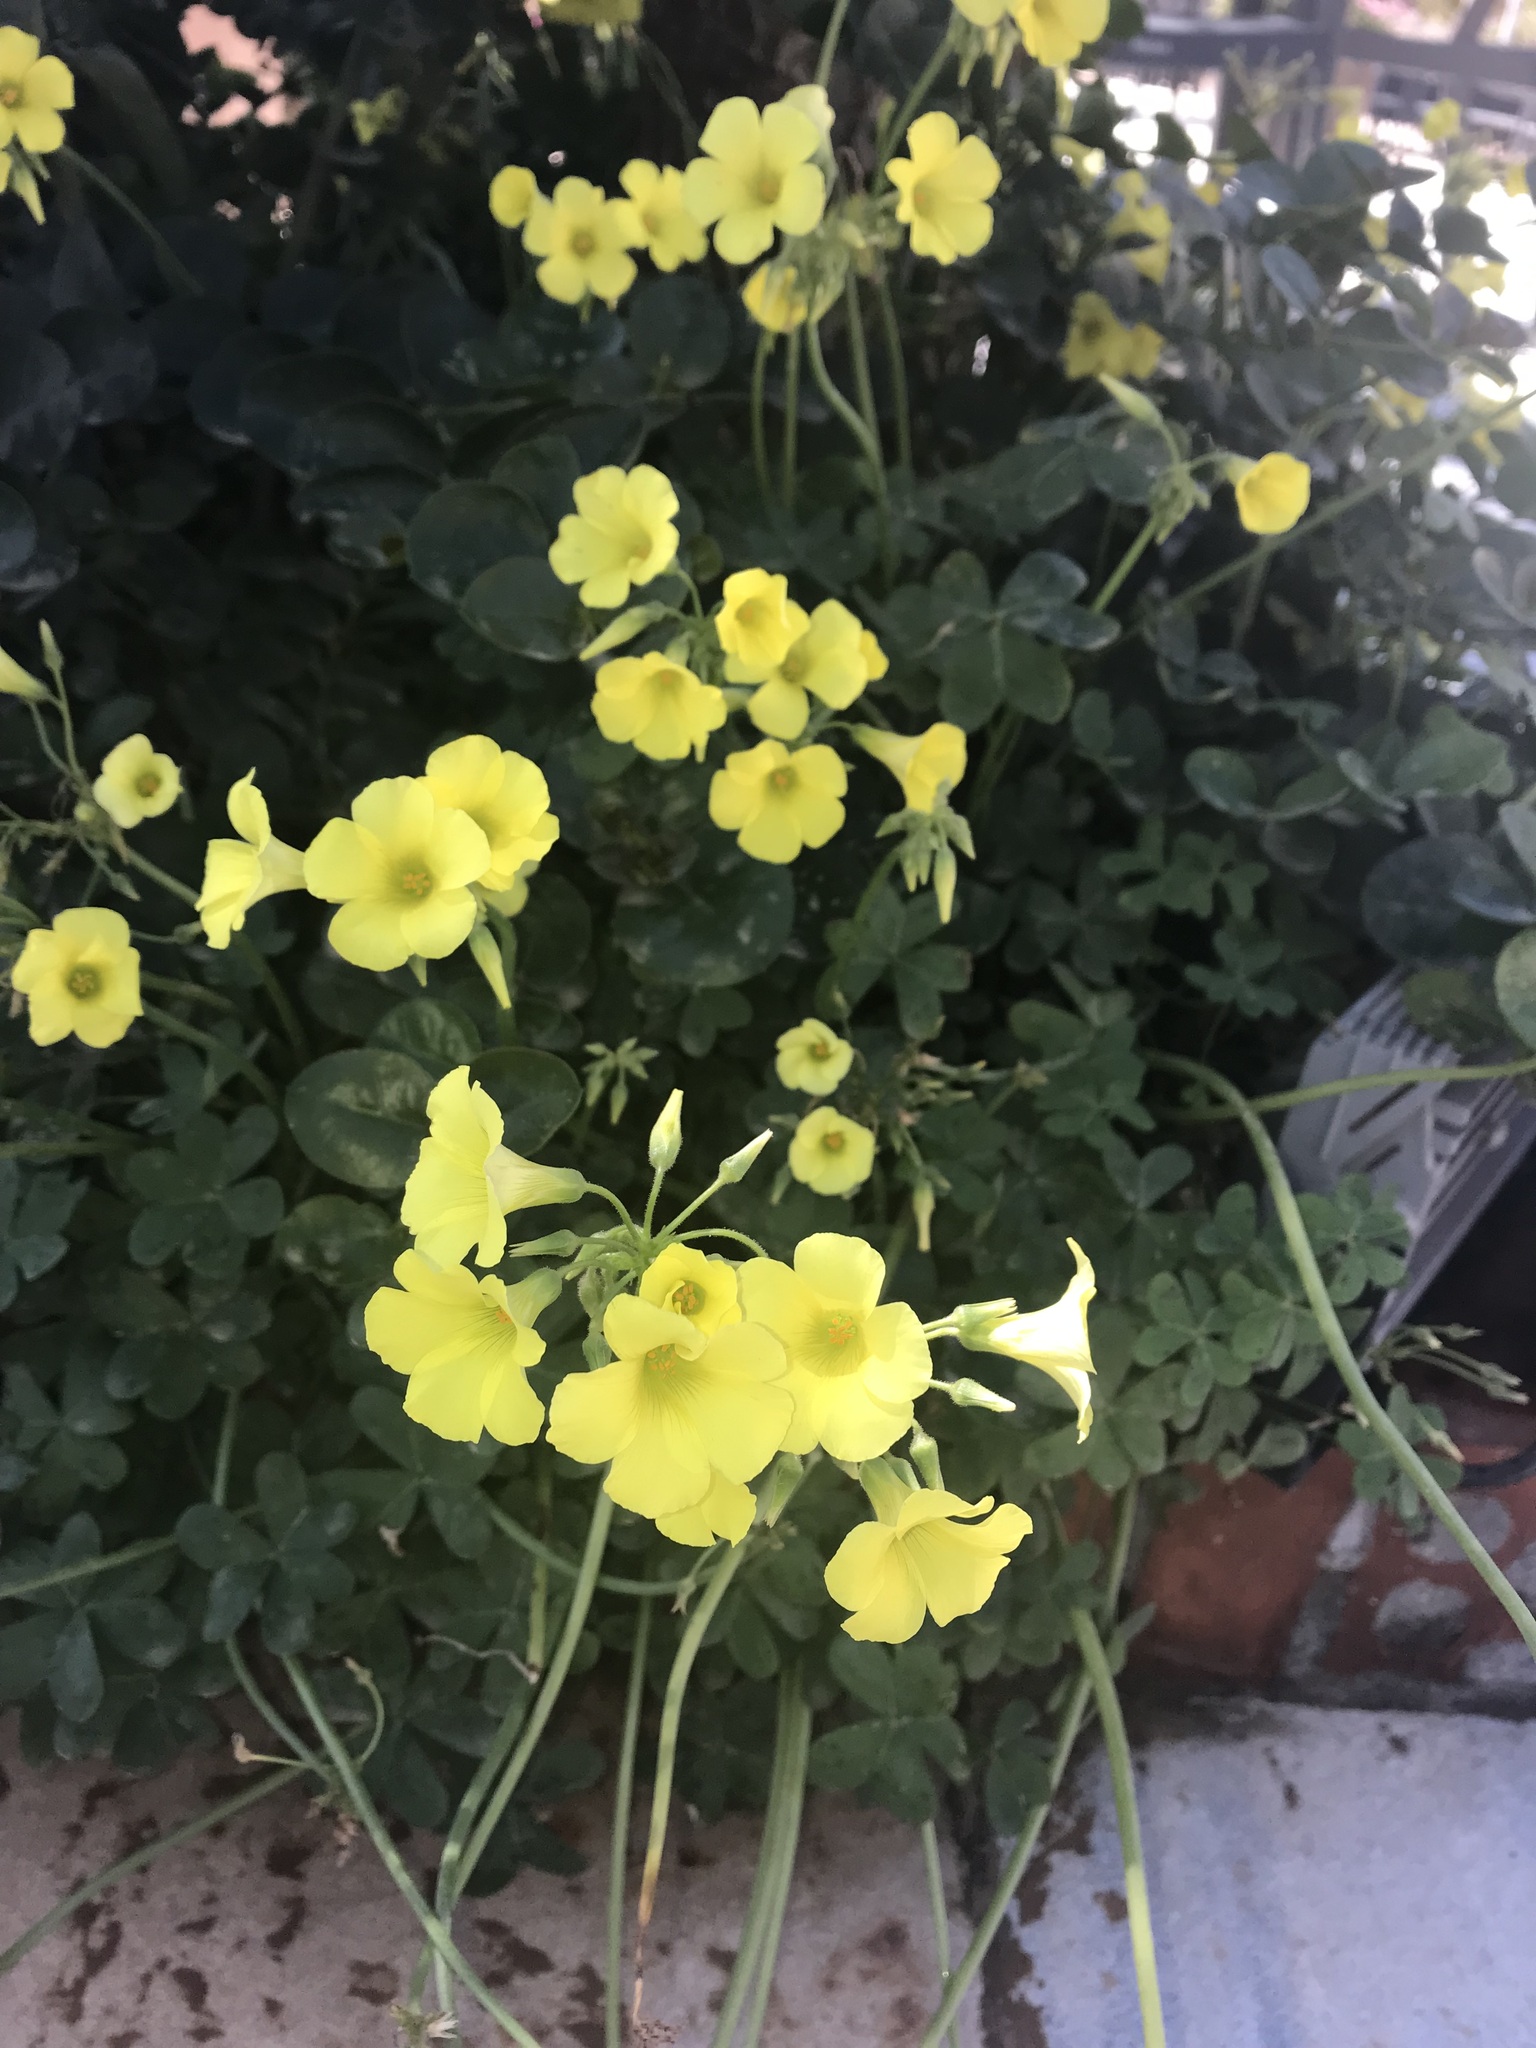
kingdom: Plantae
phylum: Tracheophyta
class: Magnoliopsida
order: Oxalidales
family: Oxalidaceae
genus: Oxalis
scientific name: Oxalis pes-caprae
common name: Bermuda-buttercup
